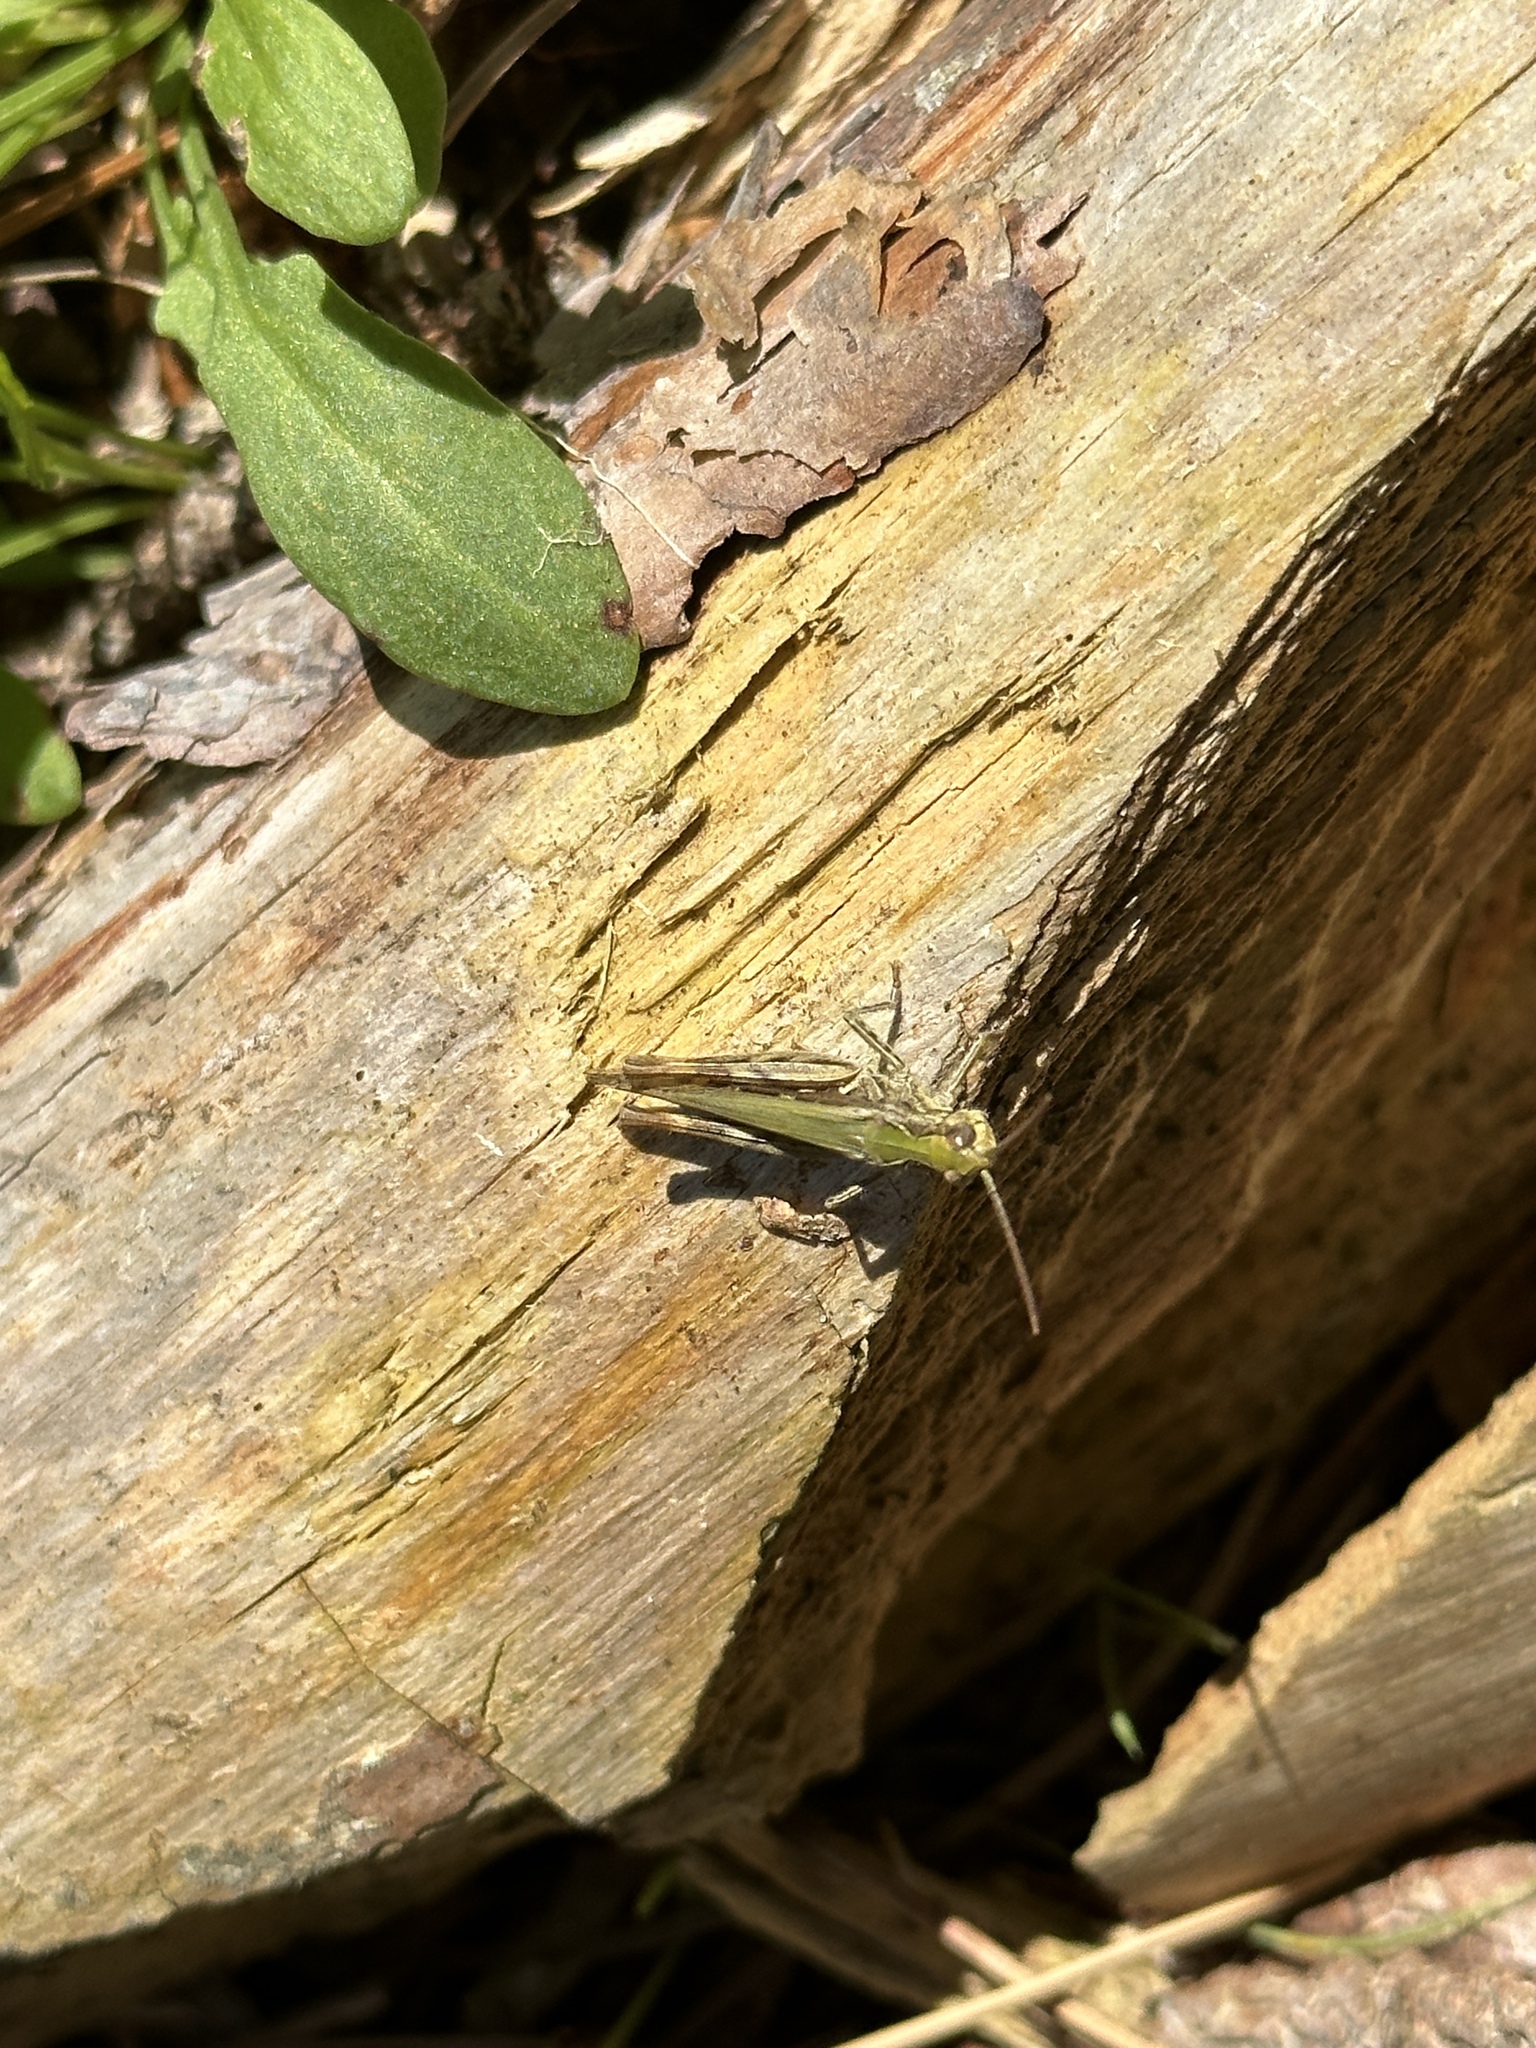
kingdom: Animalia
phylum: Arthropoda
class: Insecta
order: Orthoptera
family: Acrididae
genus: Chorthippus
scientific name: Chorthippus brunneus
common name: Field grasshopper
